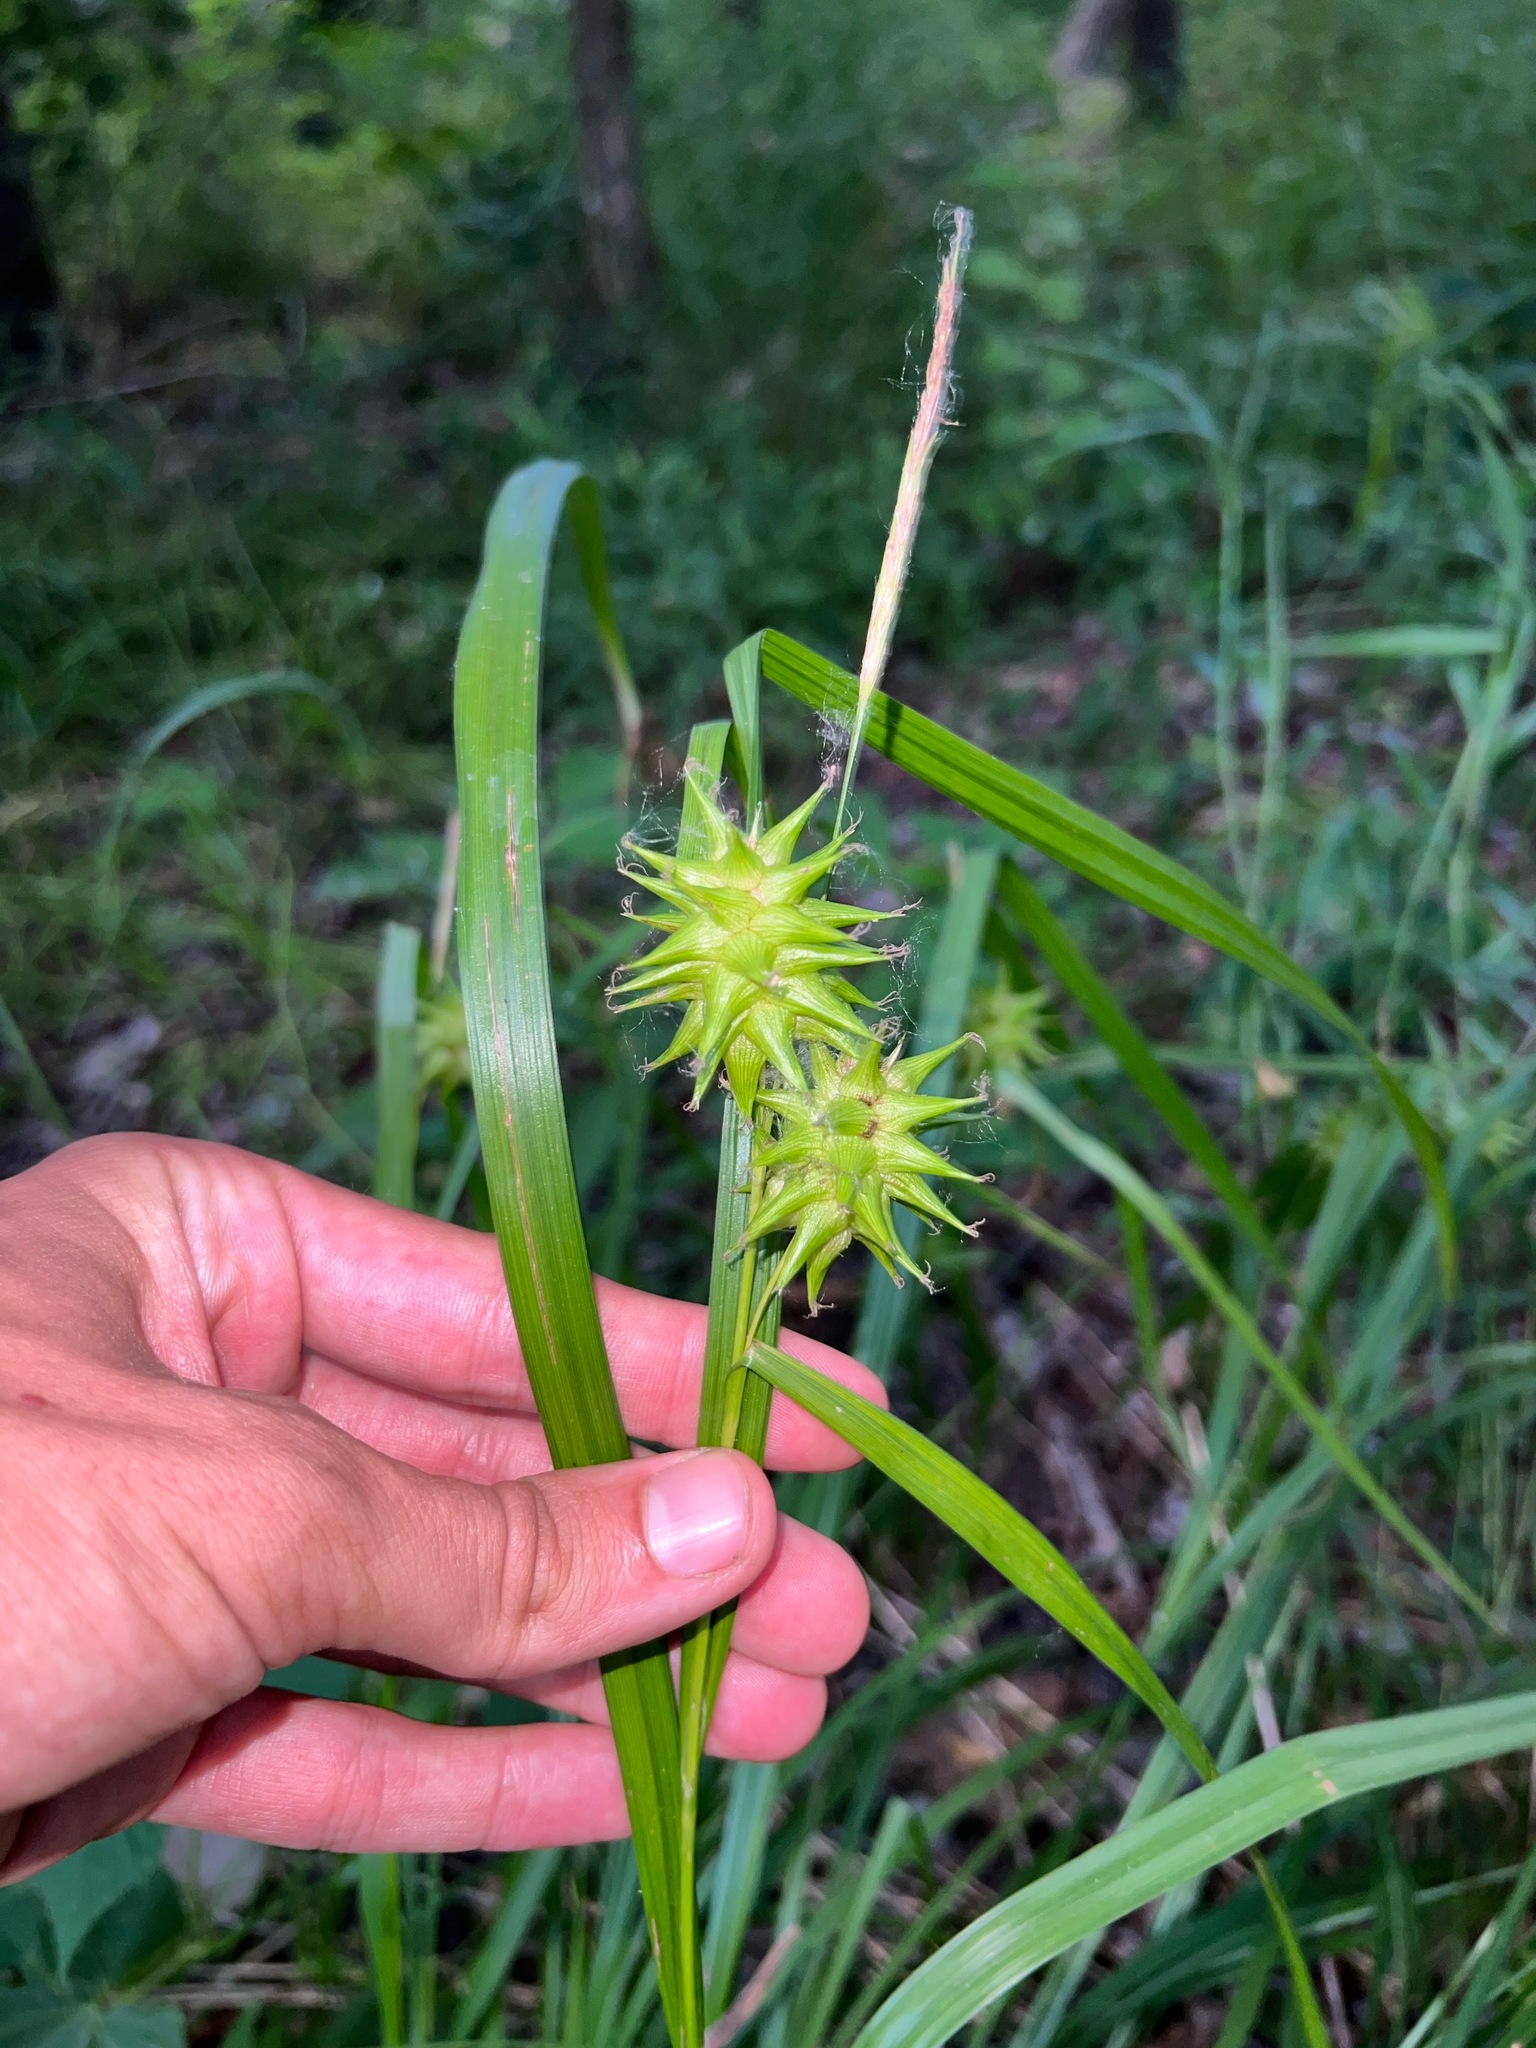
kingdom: Plantae
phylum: Tracheophyta
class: Liliopsida
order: Poales
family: Cyperaceae
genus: Carex
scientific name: Carex grayi
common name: Asa gray's sedge
